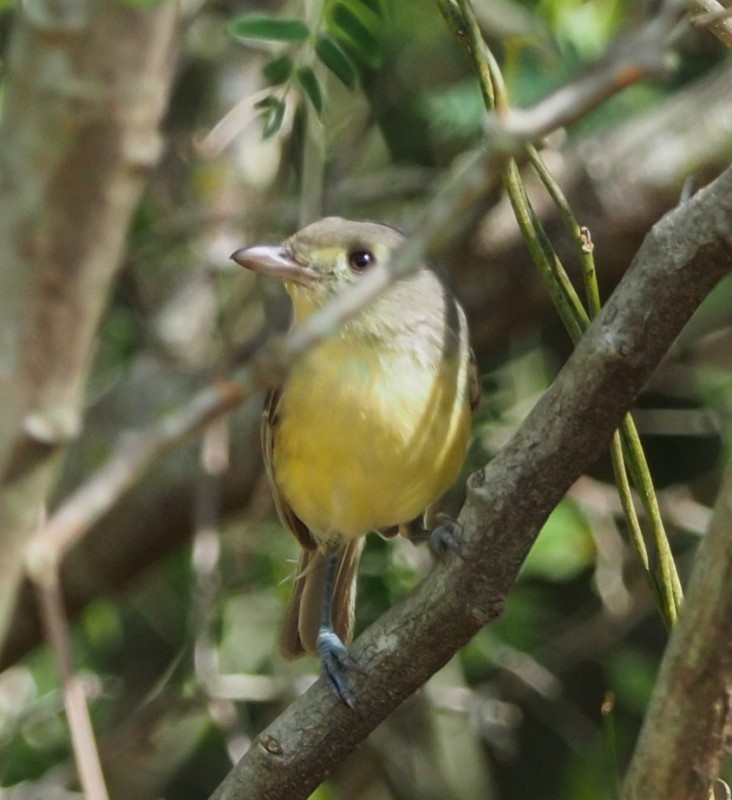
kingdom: Animalia
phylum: Chordata
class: Aves
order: Passeriformes
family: Vireonidae
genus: Vireo
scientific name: Vireo gundlachii
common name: Cuban vireo
